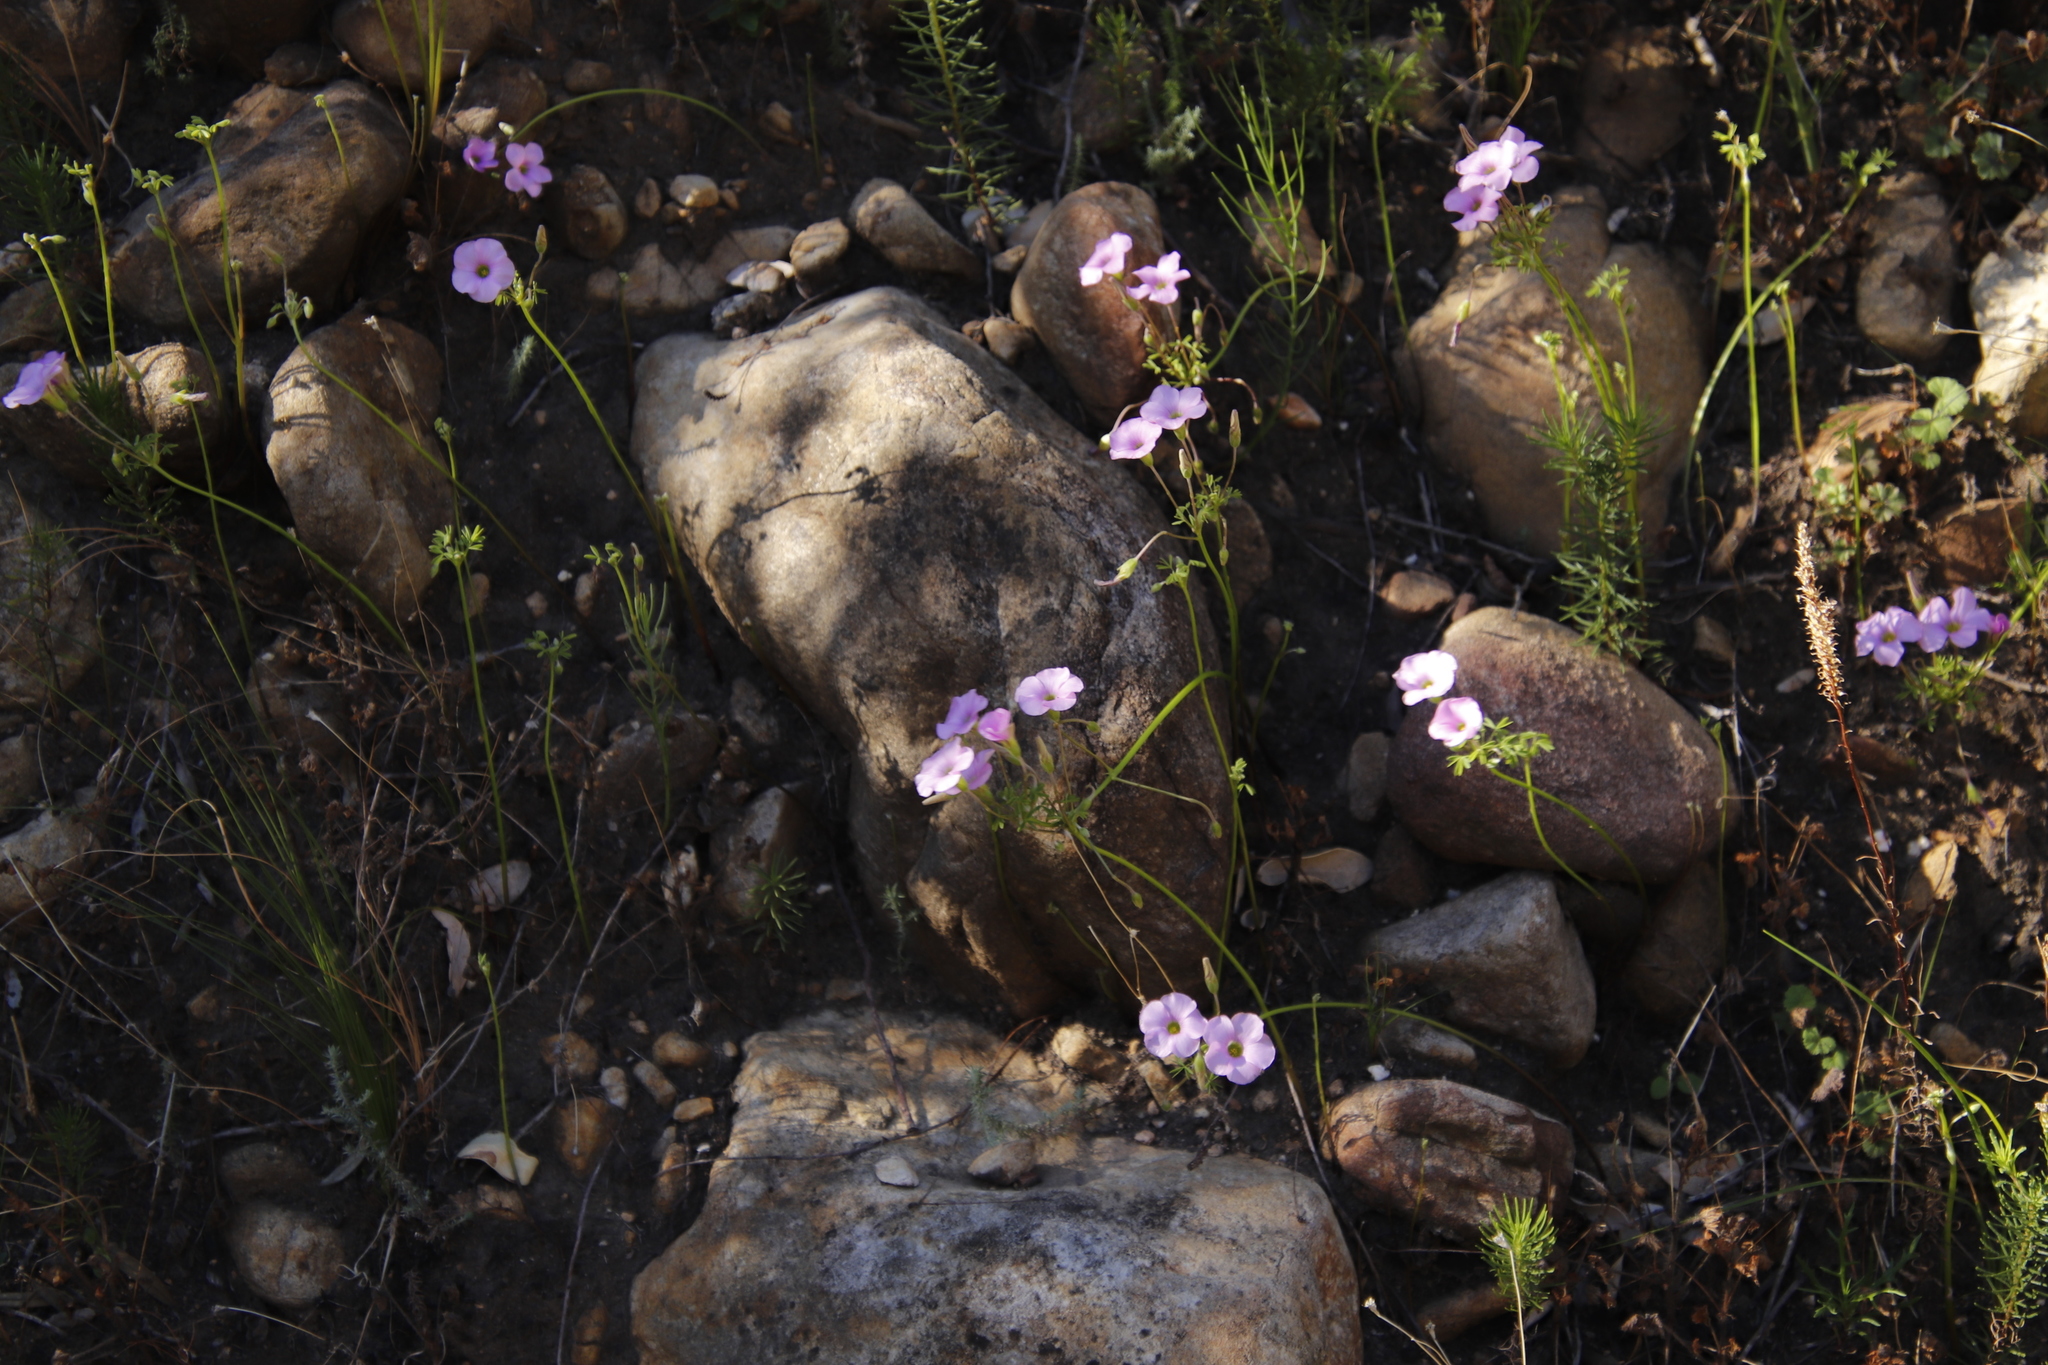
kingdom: Plantae
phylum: Tracheophyta
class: Magnoliopsida
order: Oxalidales
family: Oxalidaceae
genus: Oxalis
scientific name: Oxalis bifida
